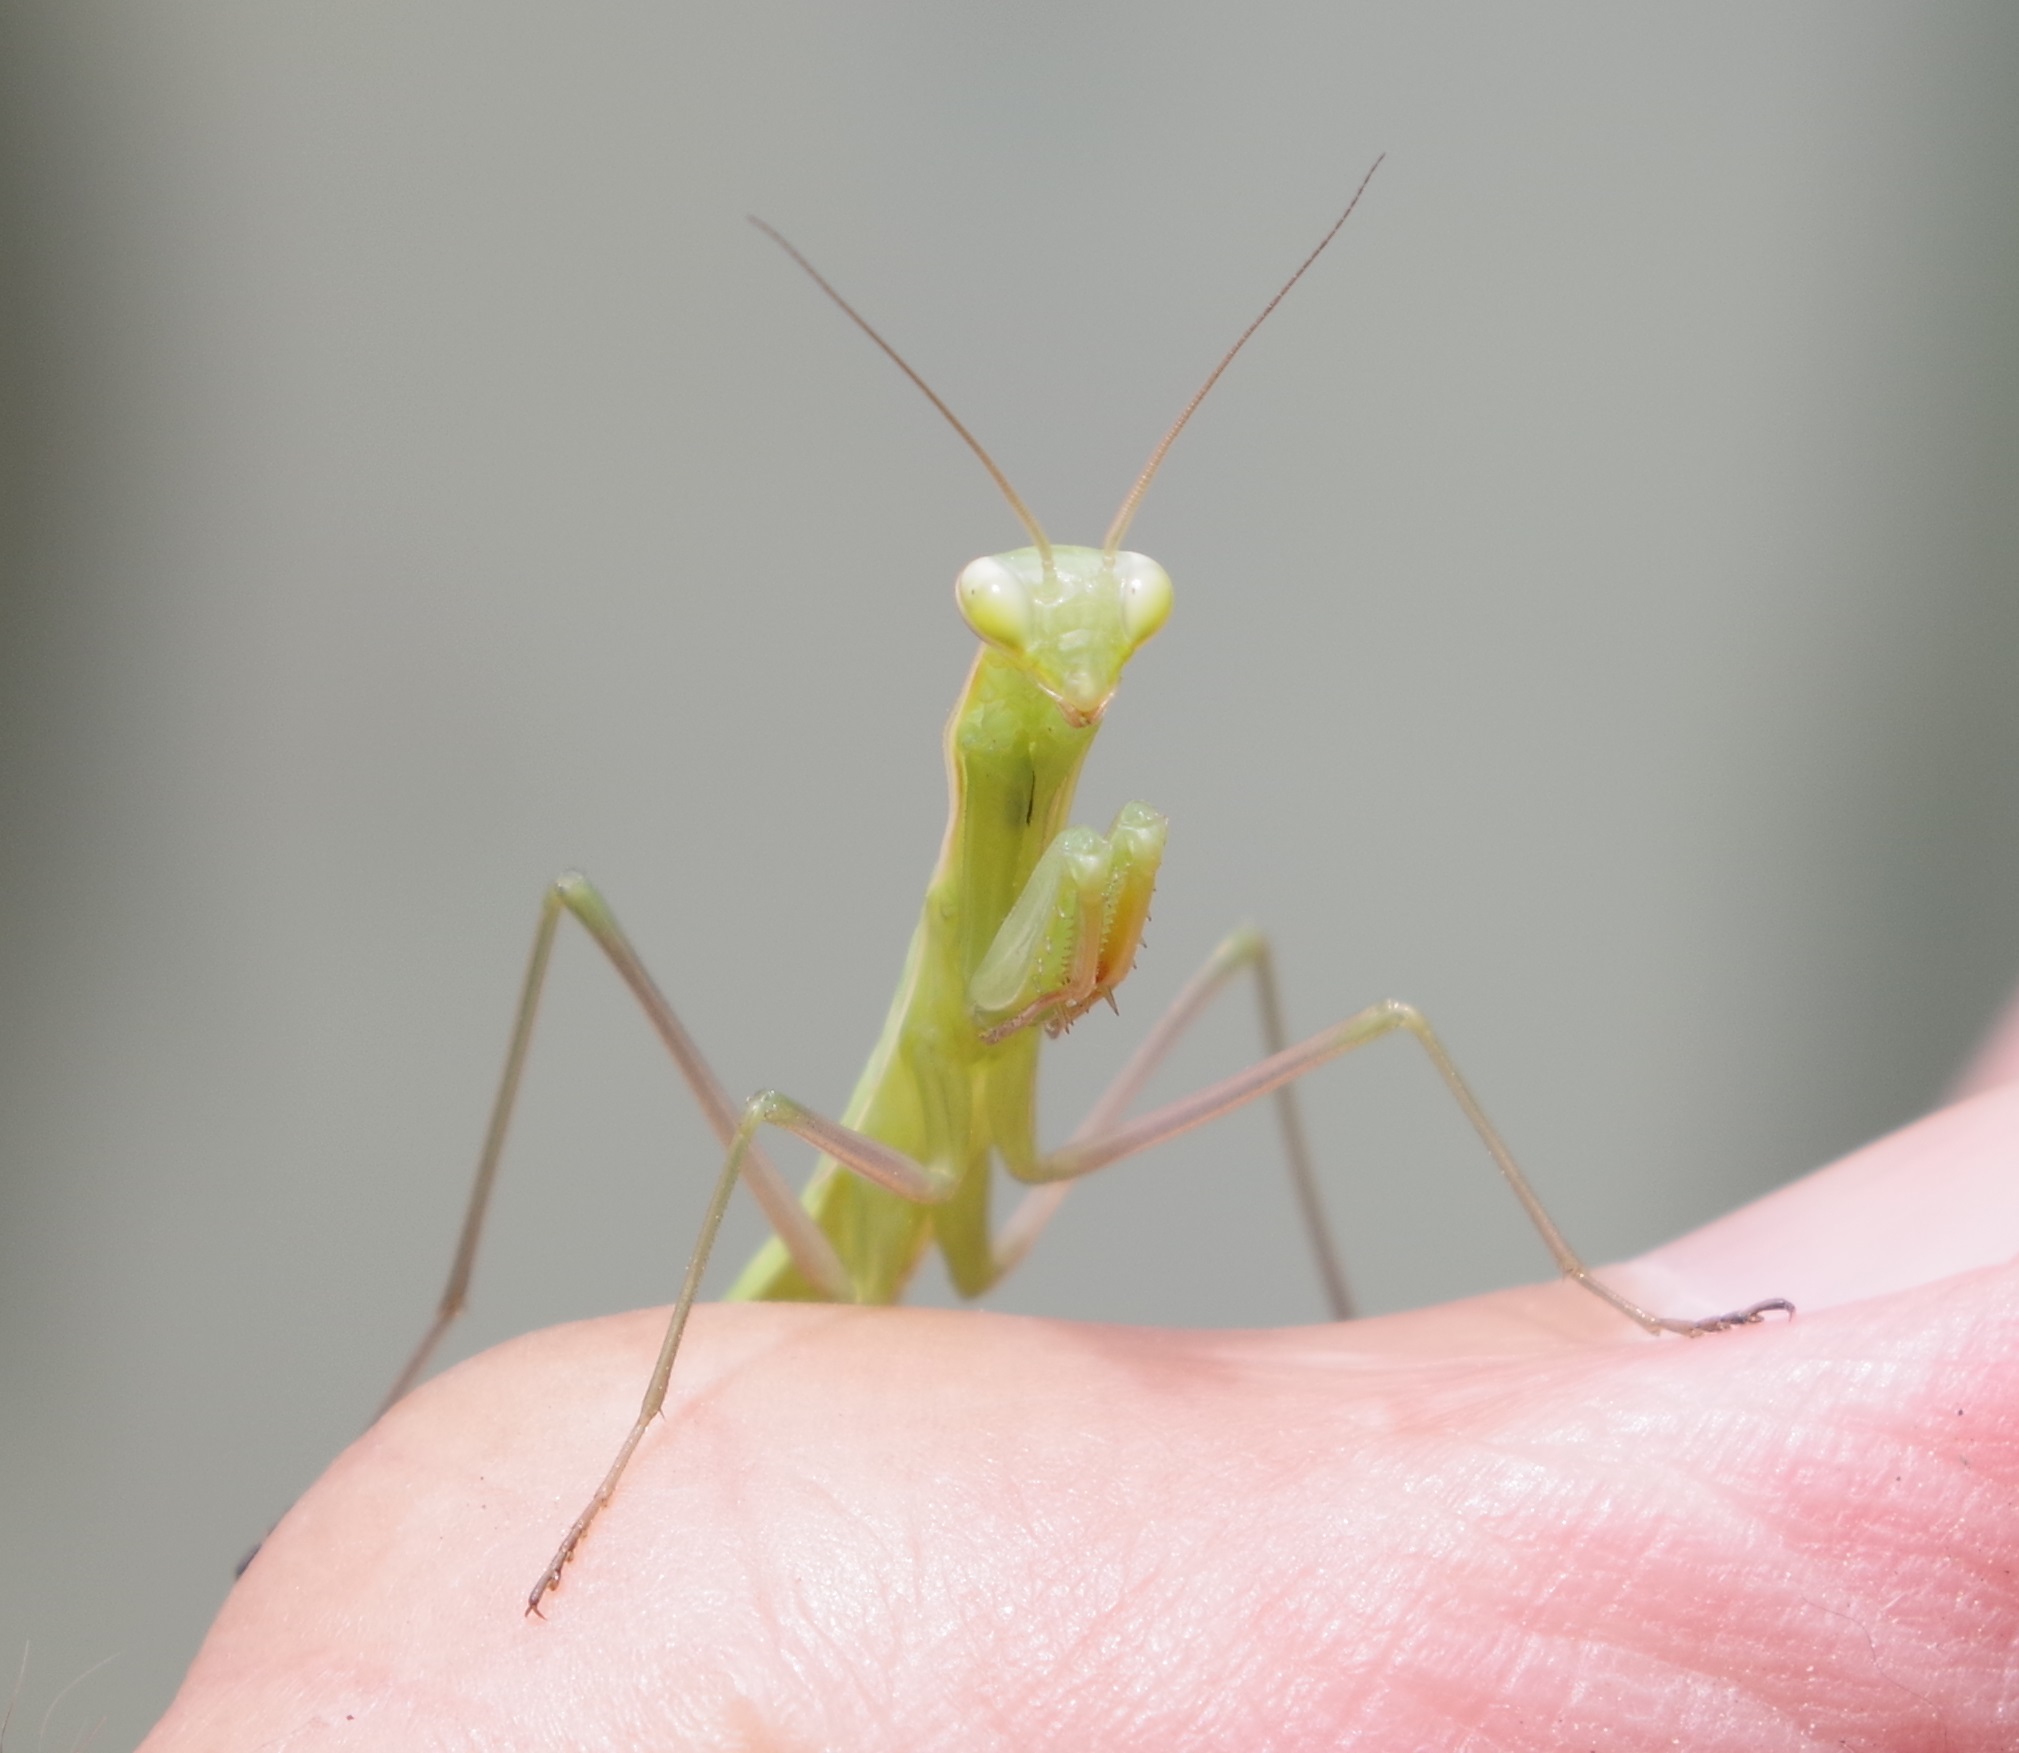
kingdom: Animalia
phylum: Arthropoda
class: Insecta
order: Mantodea
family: Mantidae
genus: Mantis
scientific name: Mantis religiosa
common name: Praying mantis
